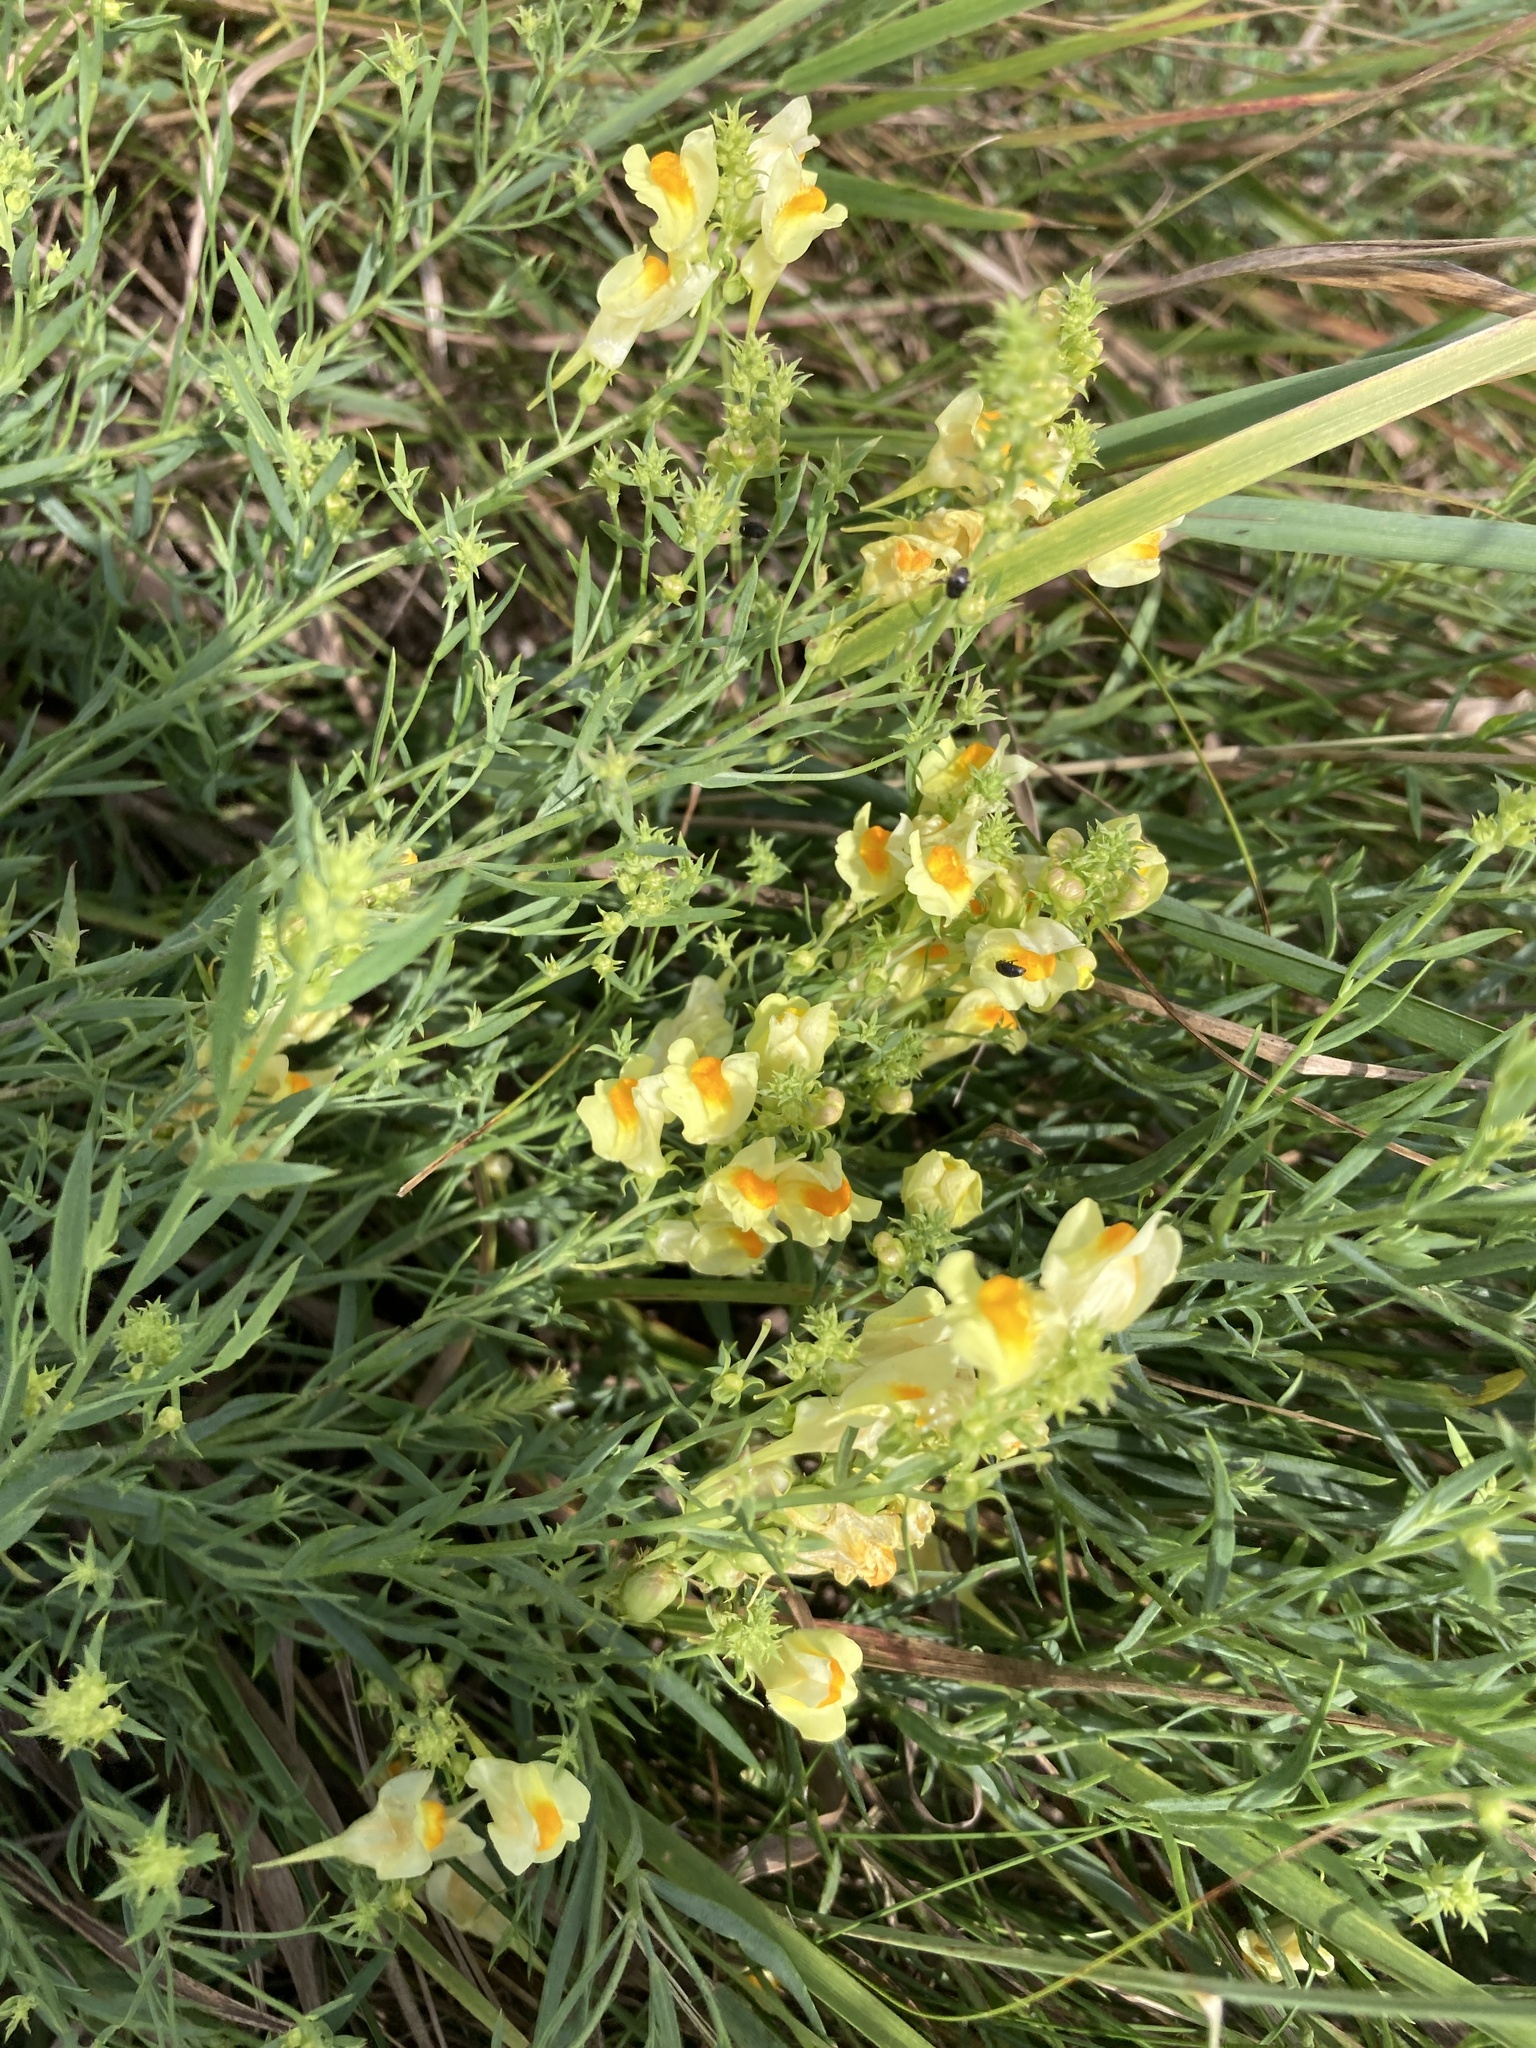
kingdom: Plantae
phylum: Tracheophyta
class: Magnoliopsida
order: Lamiales
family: Plantaginaceae
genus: Linaria
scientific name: Linaria vulgaris
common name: Butter and eggs
